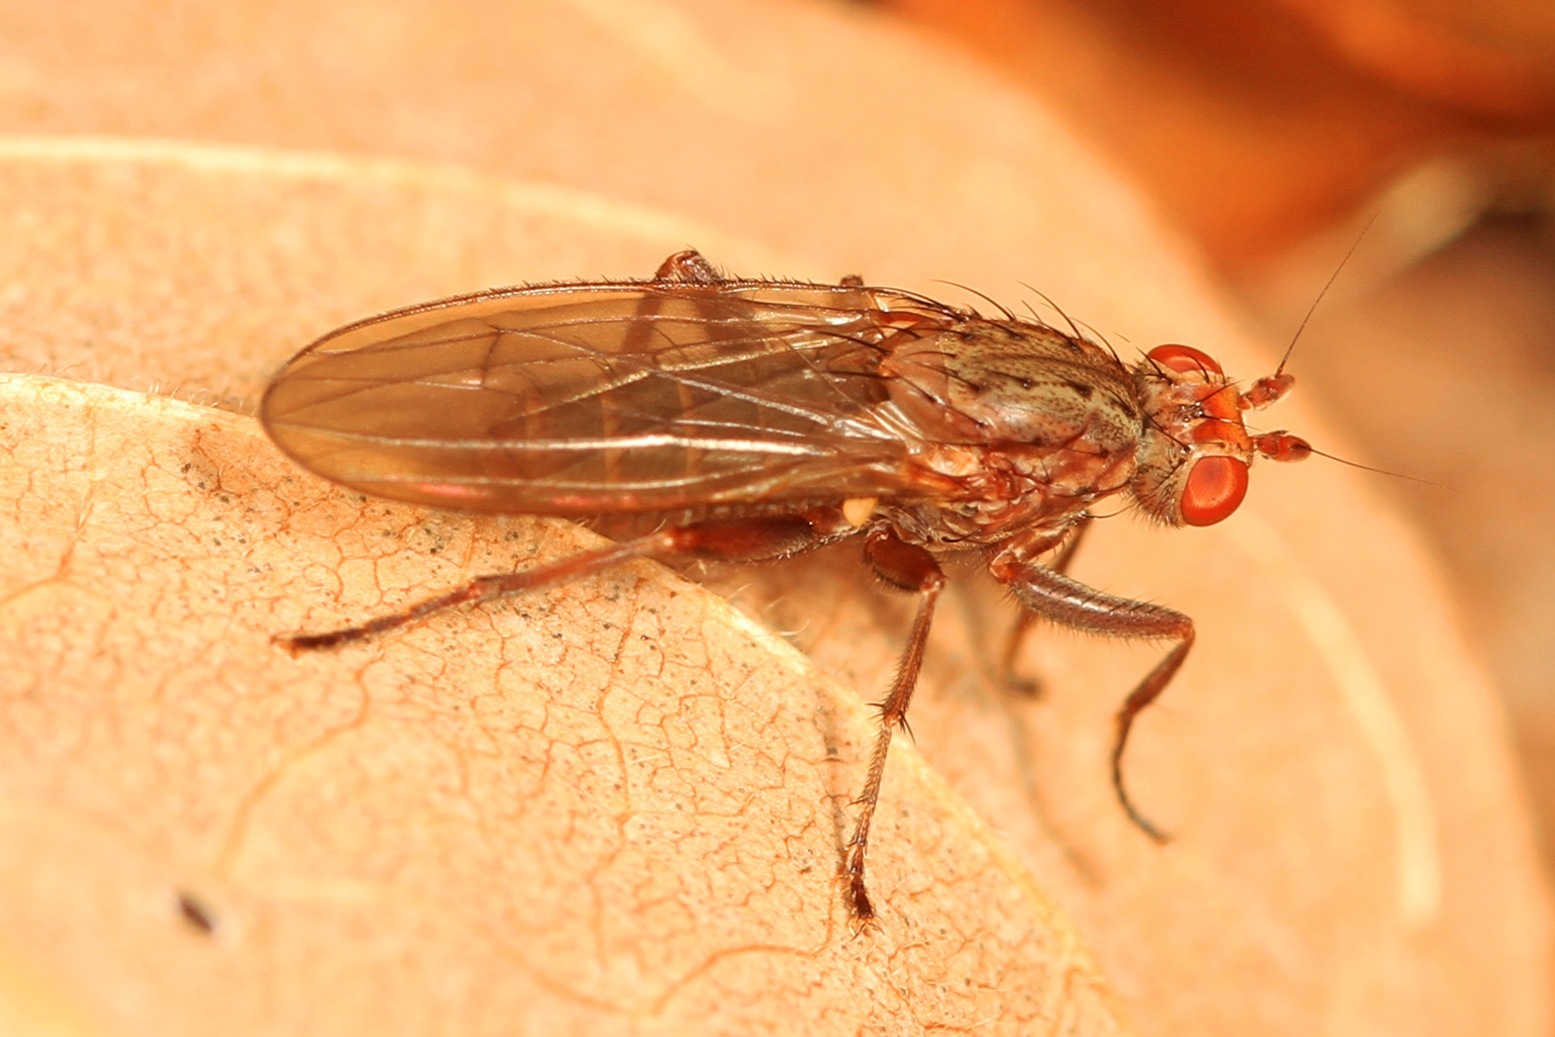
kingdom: Animalia
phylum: Arthropoda
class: Insecta
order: Diptera
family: Heleomyzidae
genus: Amoebaleria
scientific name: Amoebaleria defessa
